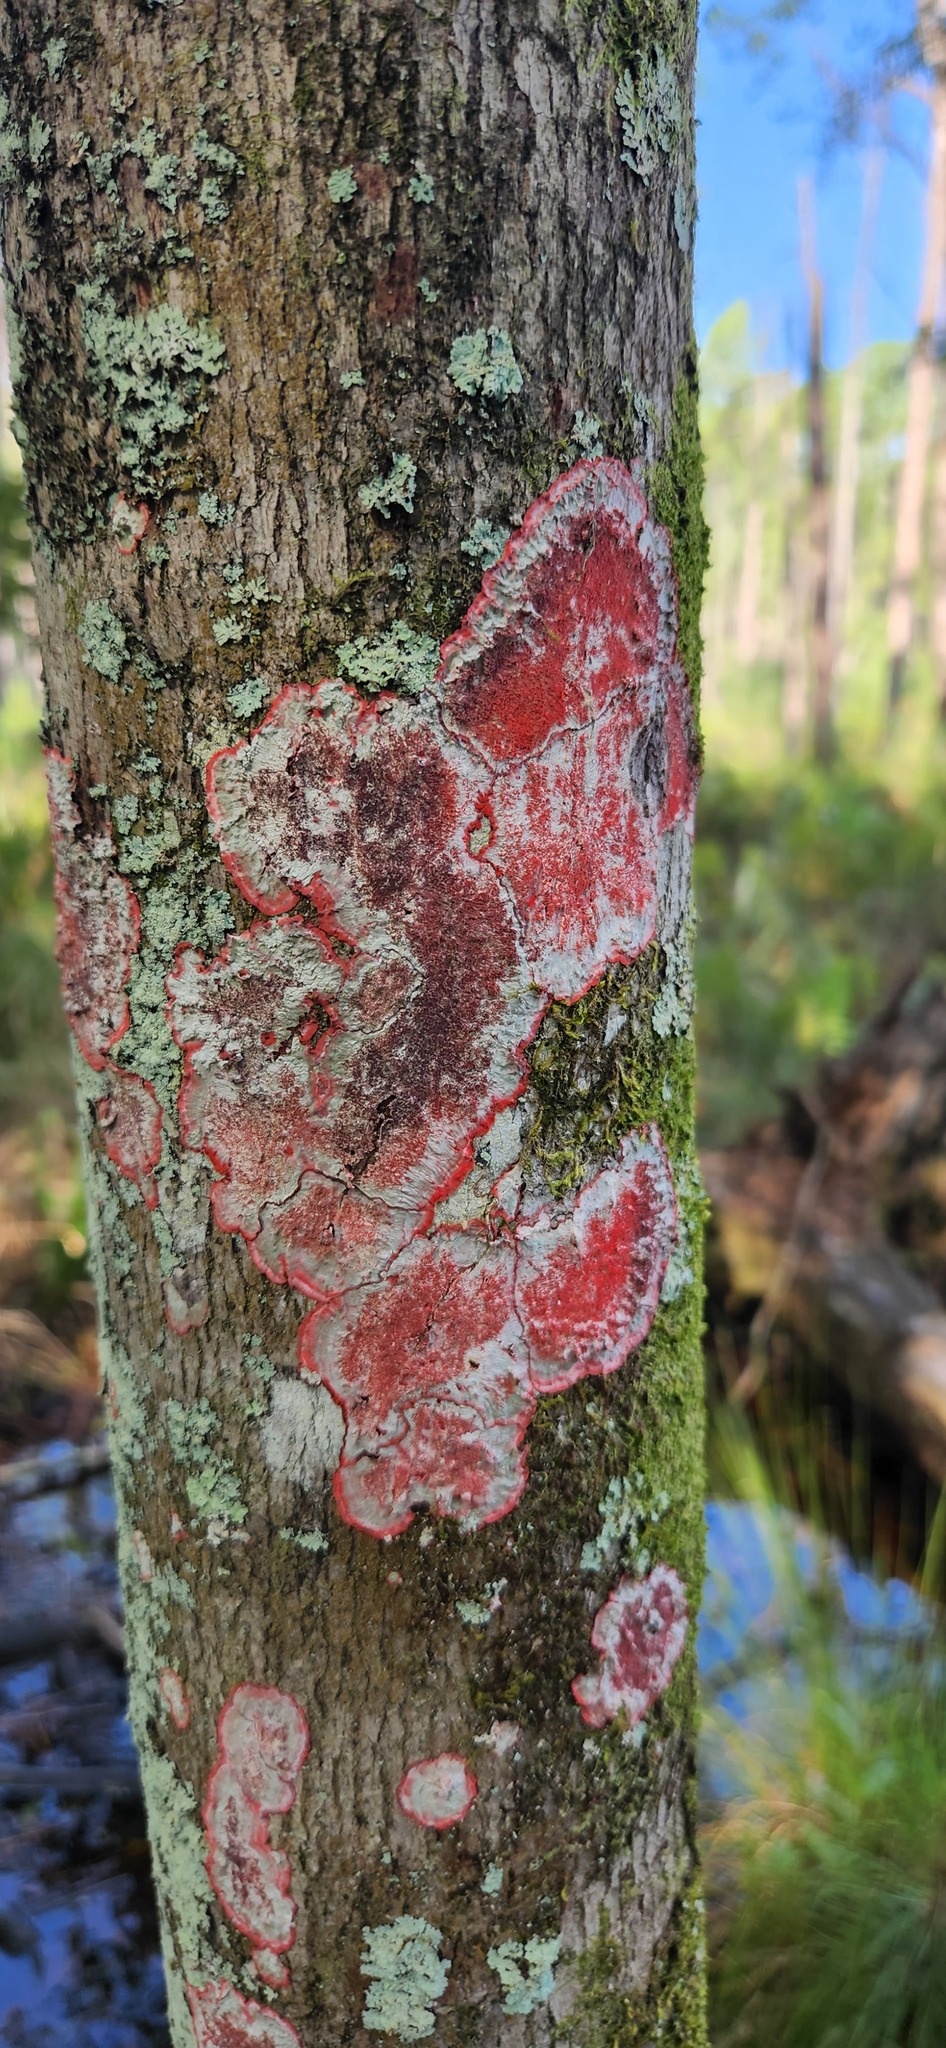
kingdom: Fungi
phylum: Ascomycota
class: Arthoniomycetes
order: Arthoniales
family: Arthoniaceae
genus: Herpothallon
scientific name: Herpothallon rubrocinctum
